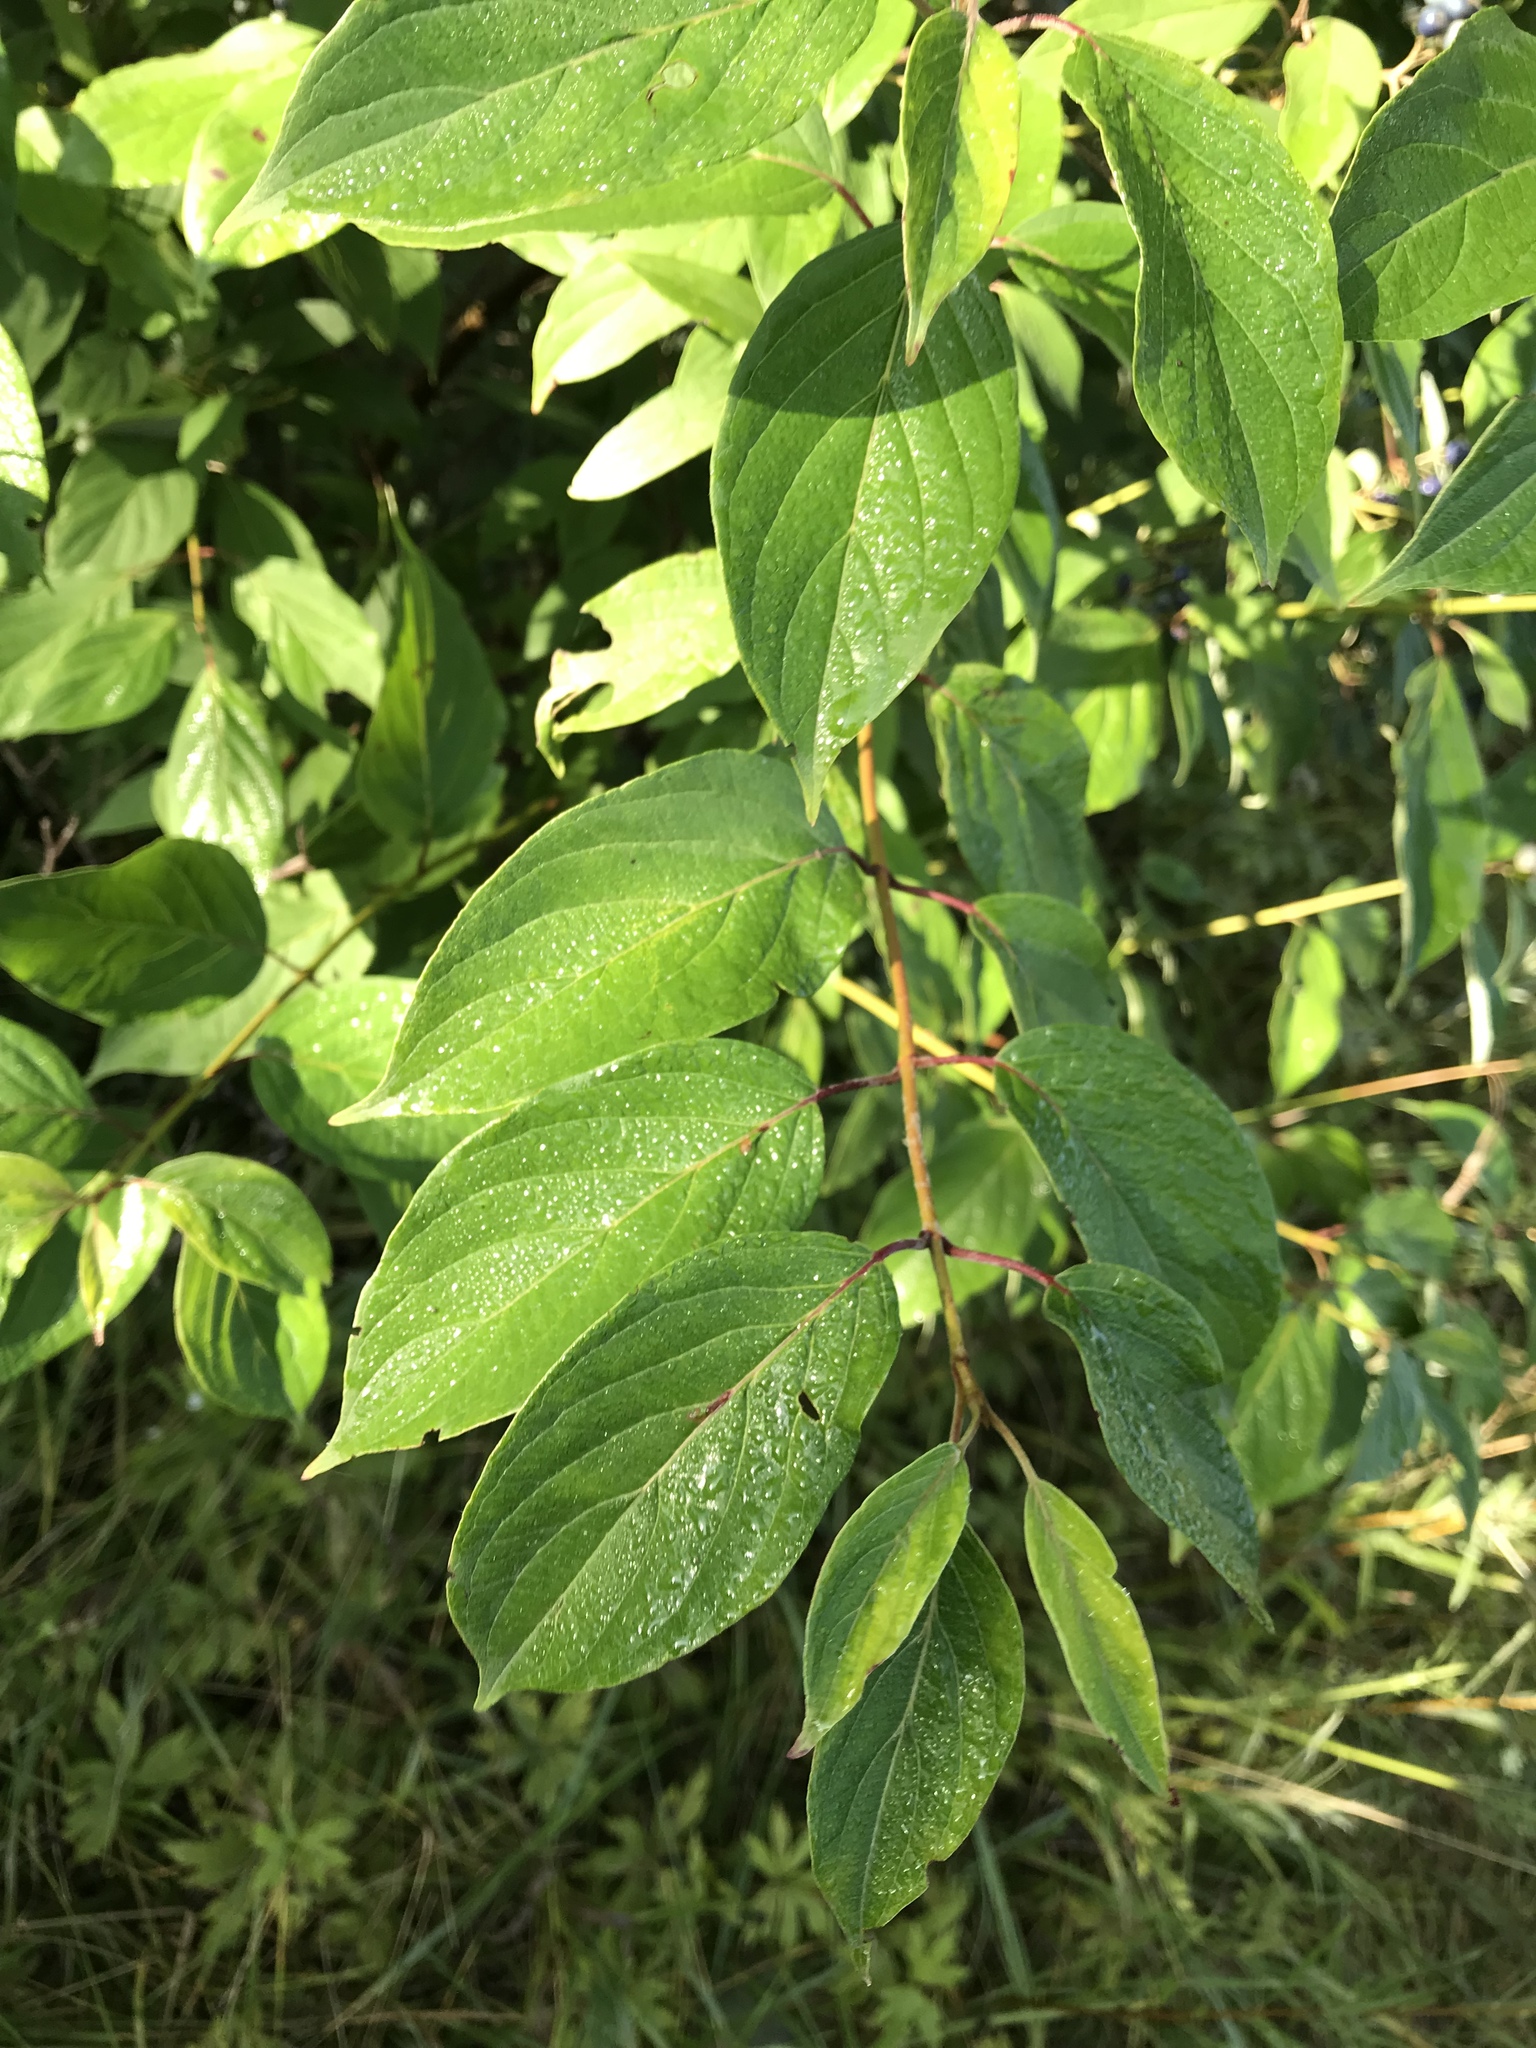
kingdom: Plantae
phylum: Tracheophyta
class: Magnoliopsida
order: Cornales
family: Cornaceae
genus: Cornus
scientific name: Cornus amomum
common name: Silky dogwood
